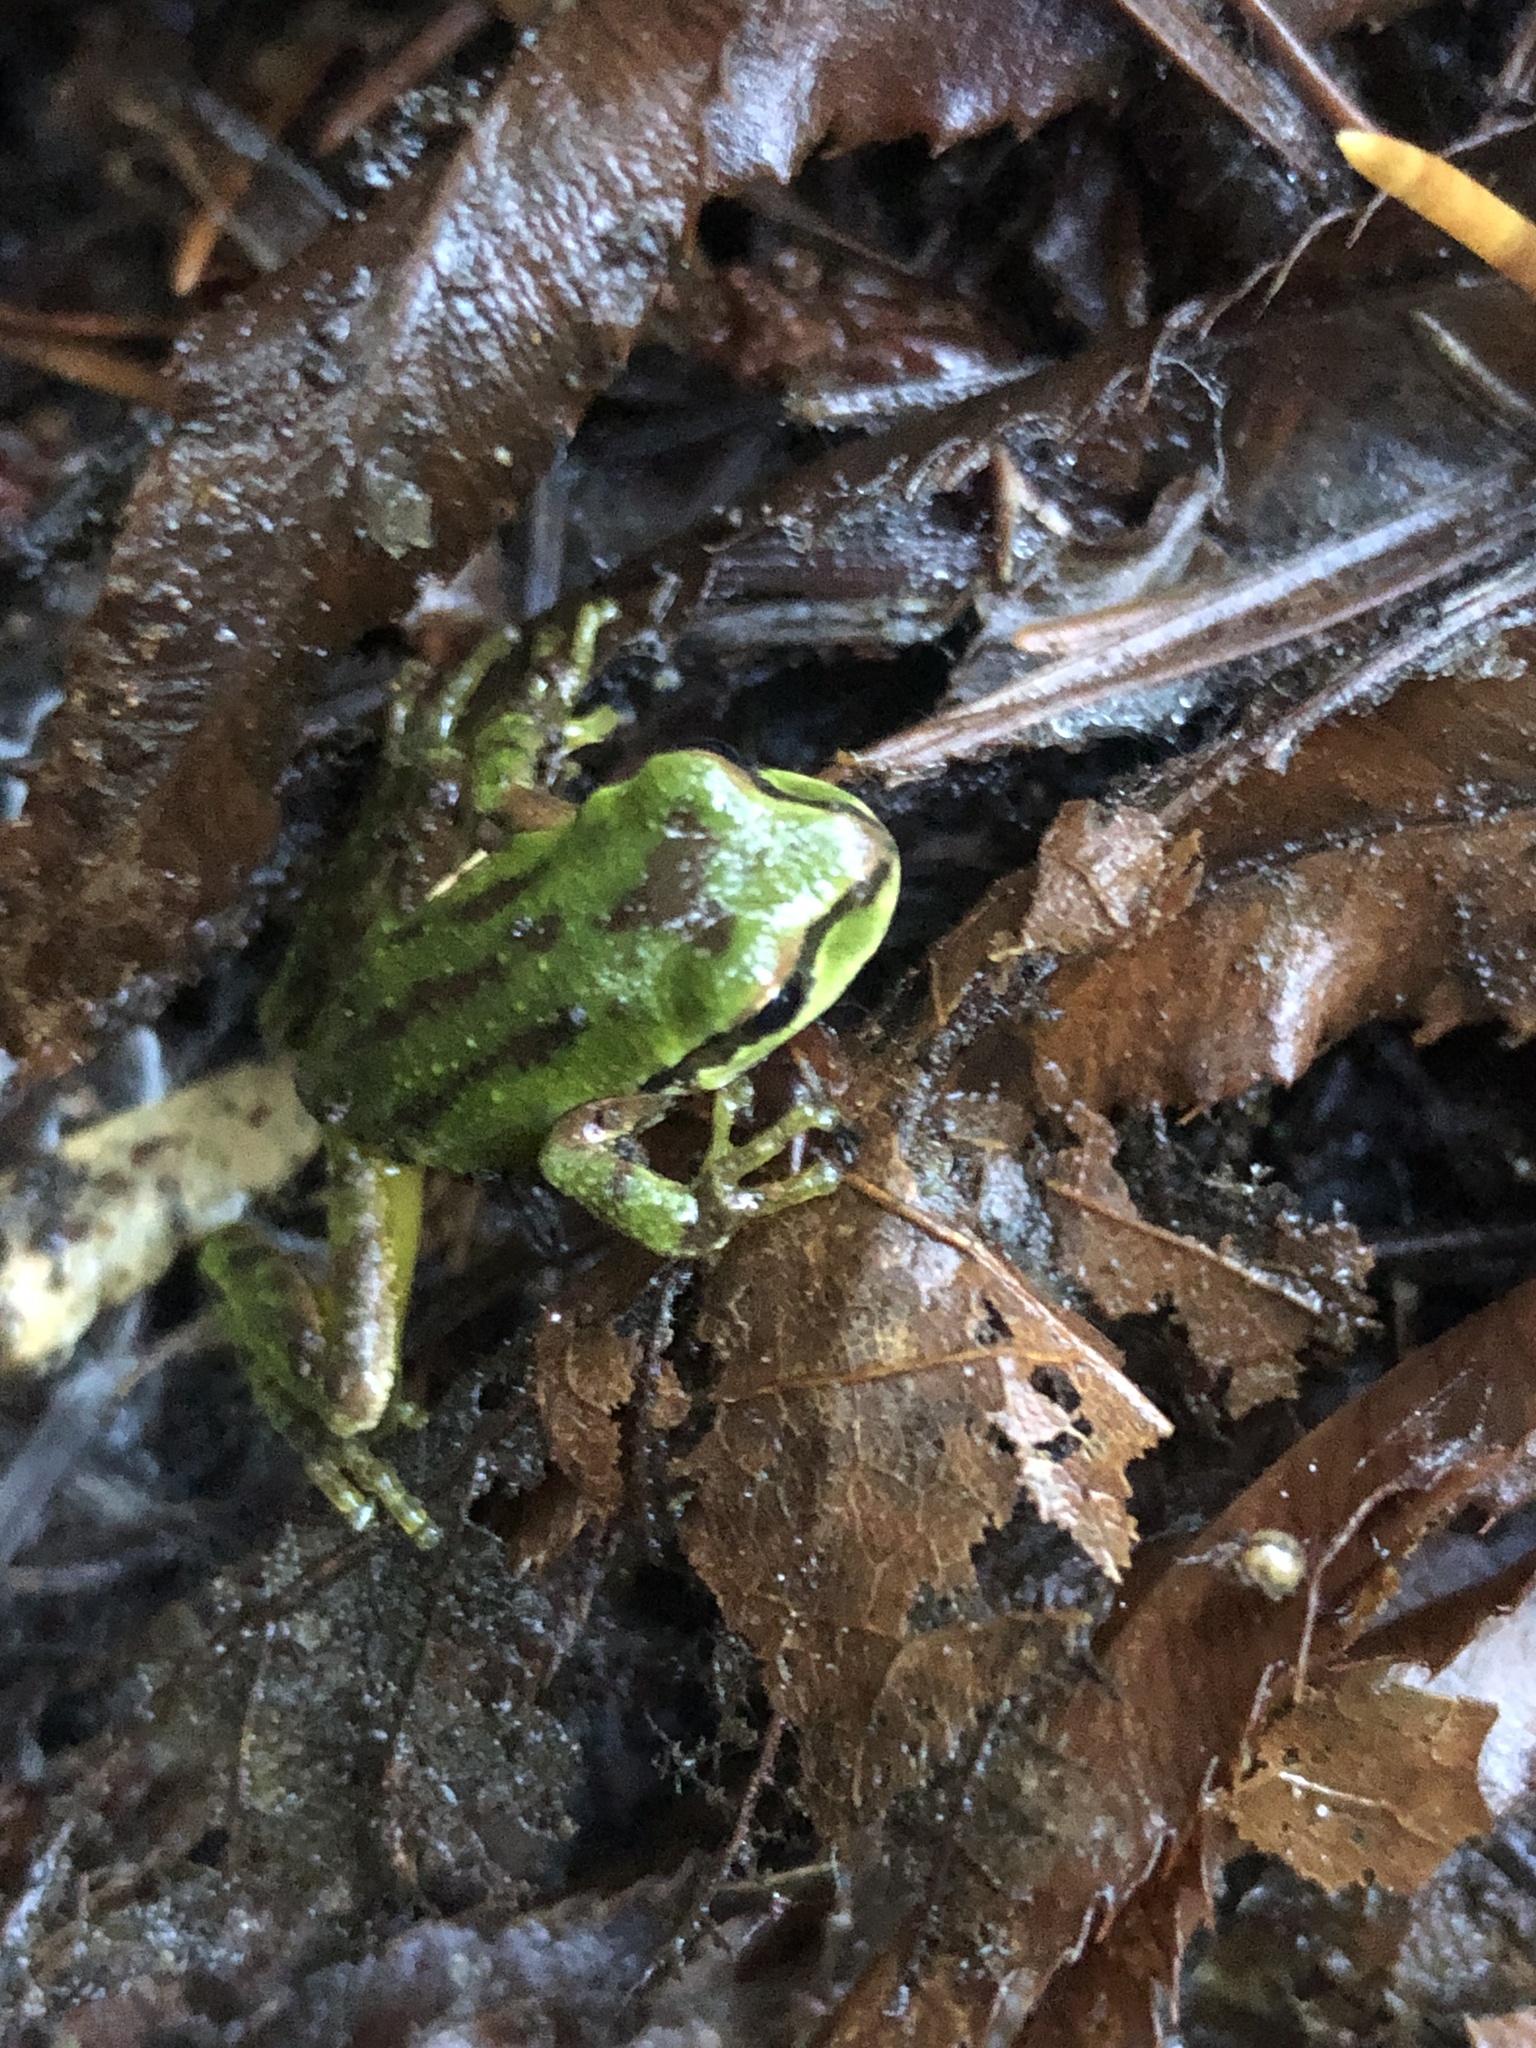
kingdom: Animalia
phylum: Chordata
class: Amphibia
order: Anura
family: Hylidae
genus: Pseudacris
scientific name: Pseudacris regilla
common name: Pacific chorus frog
